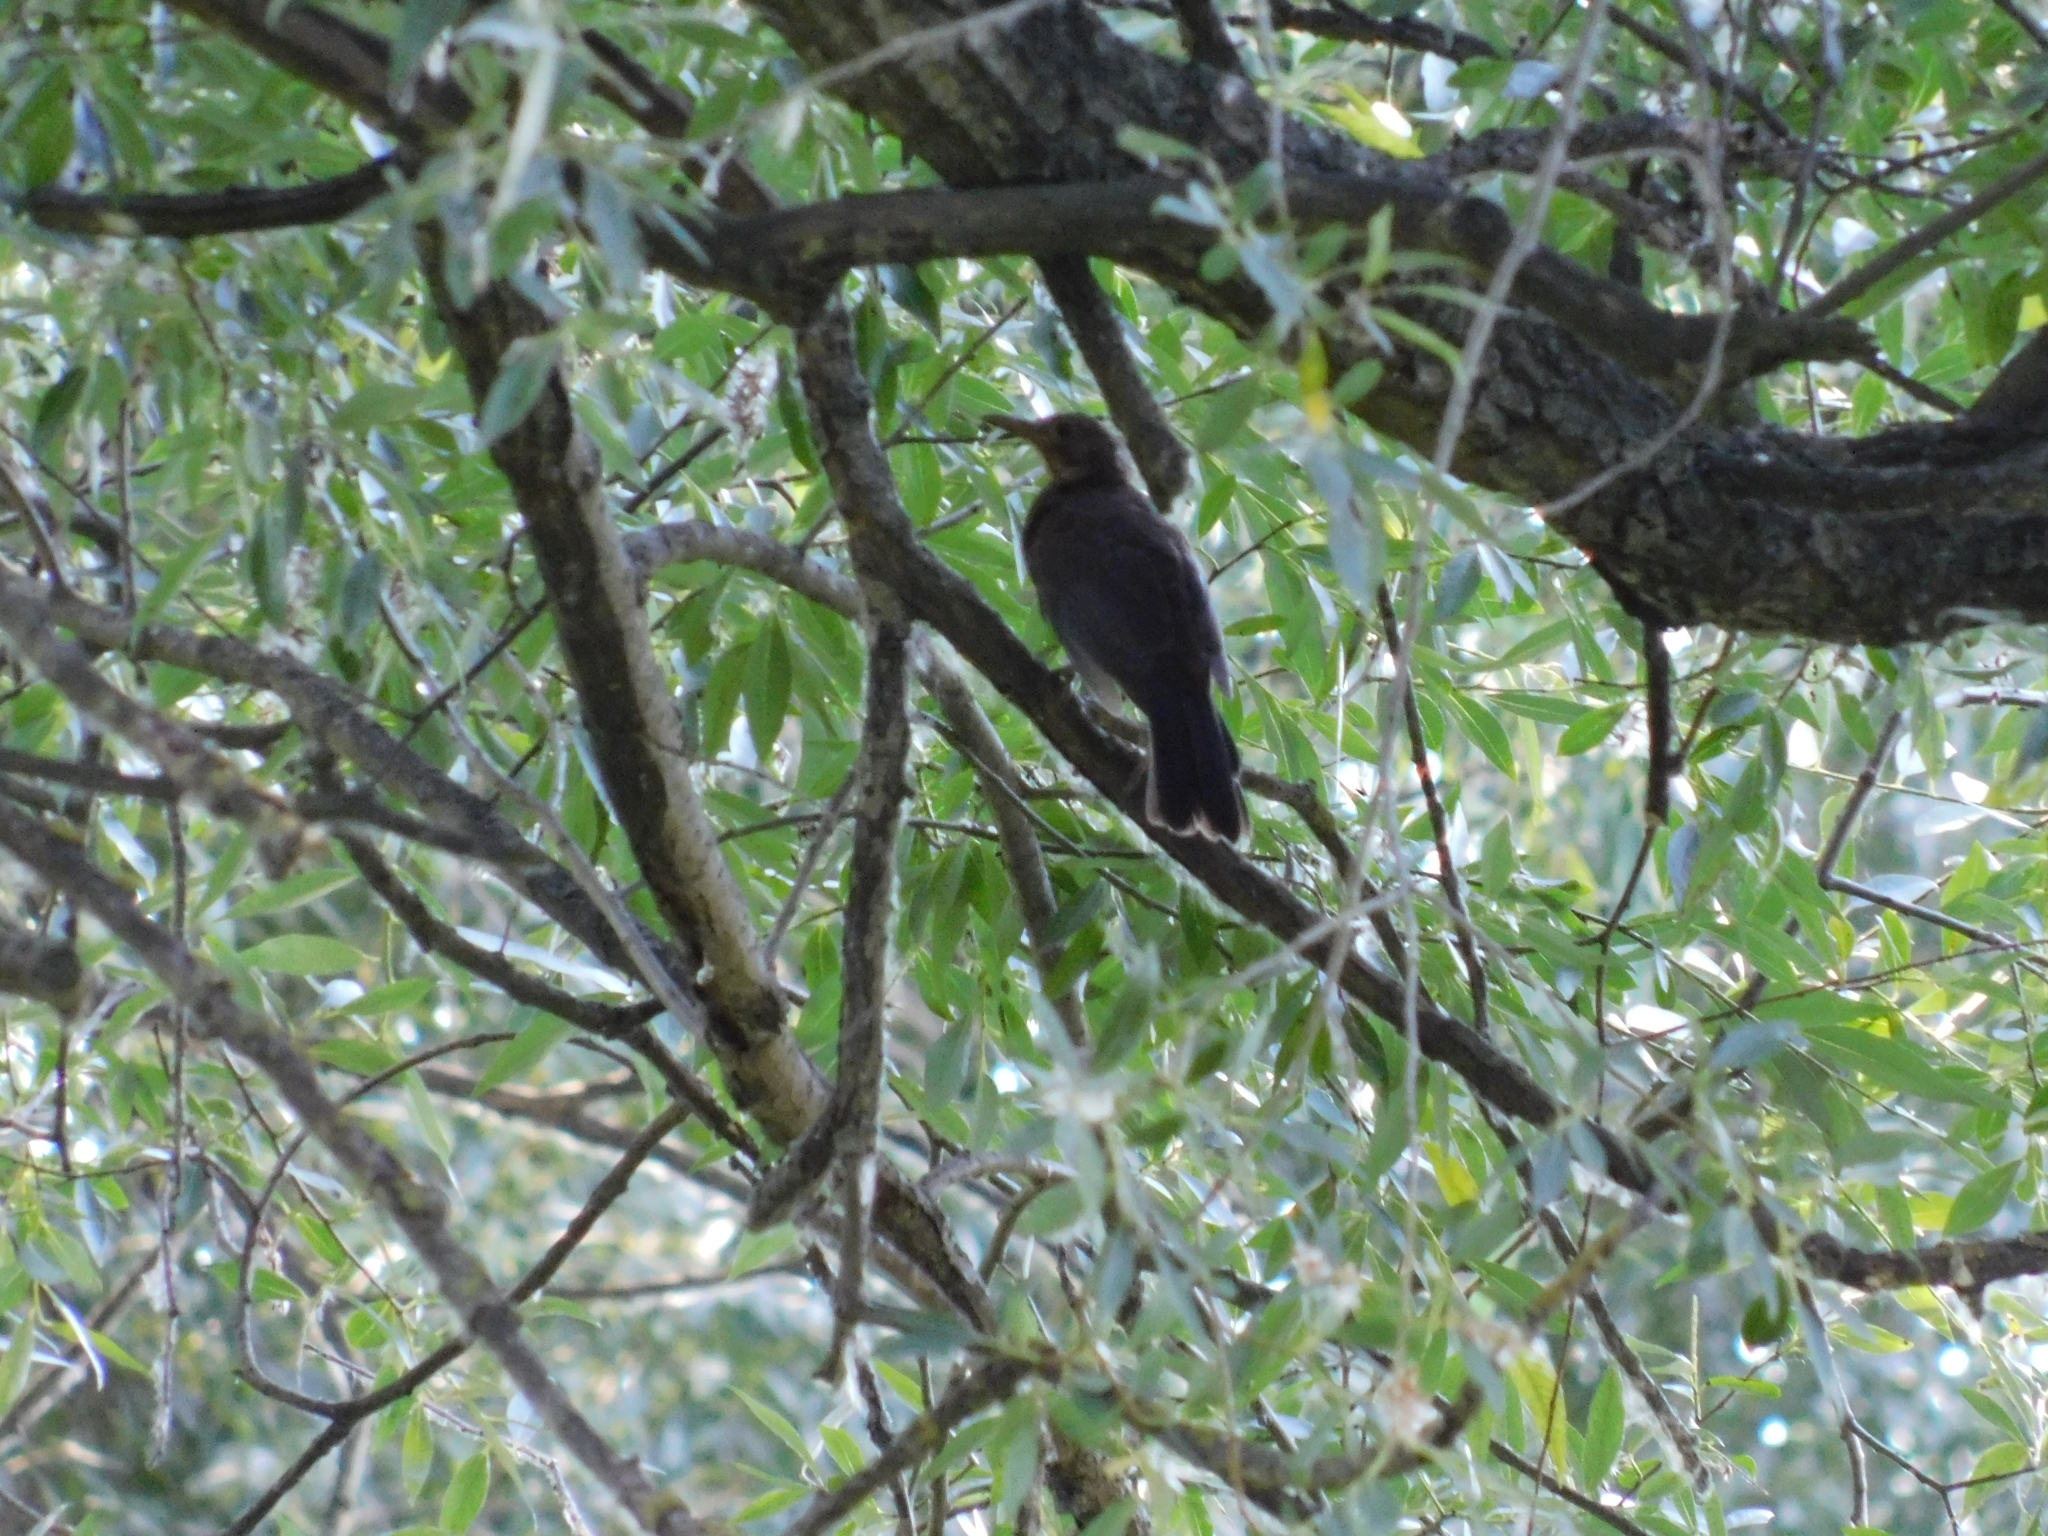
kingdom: Animalia
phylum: Chordata
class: Aves
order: Passeriformes
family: Turdidae
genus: Turdus
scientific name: Turdus merula
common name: Common blackbird
